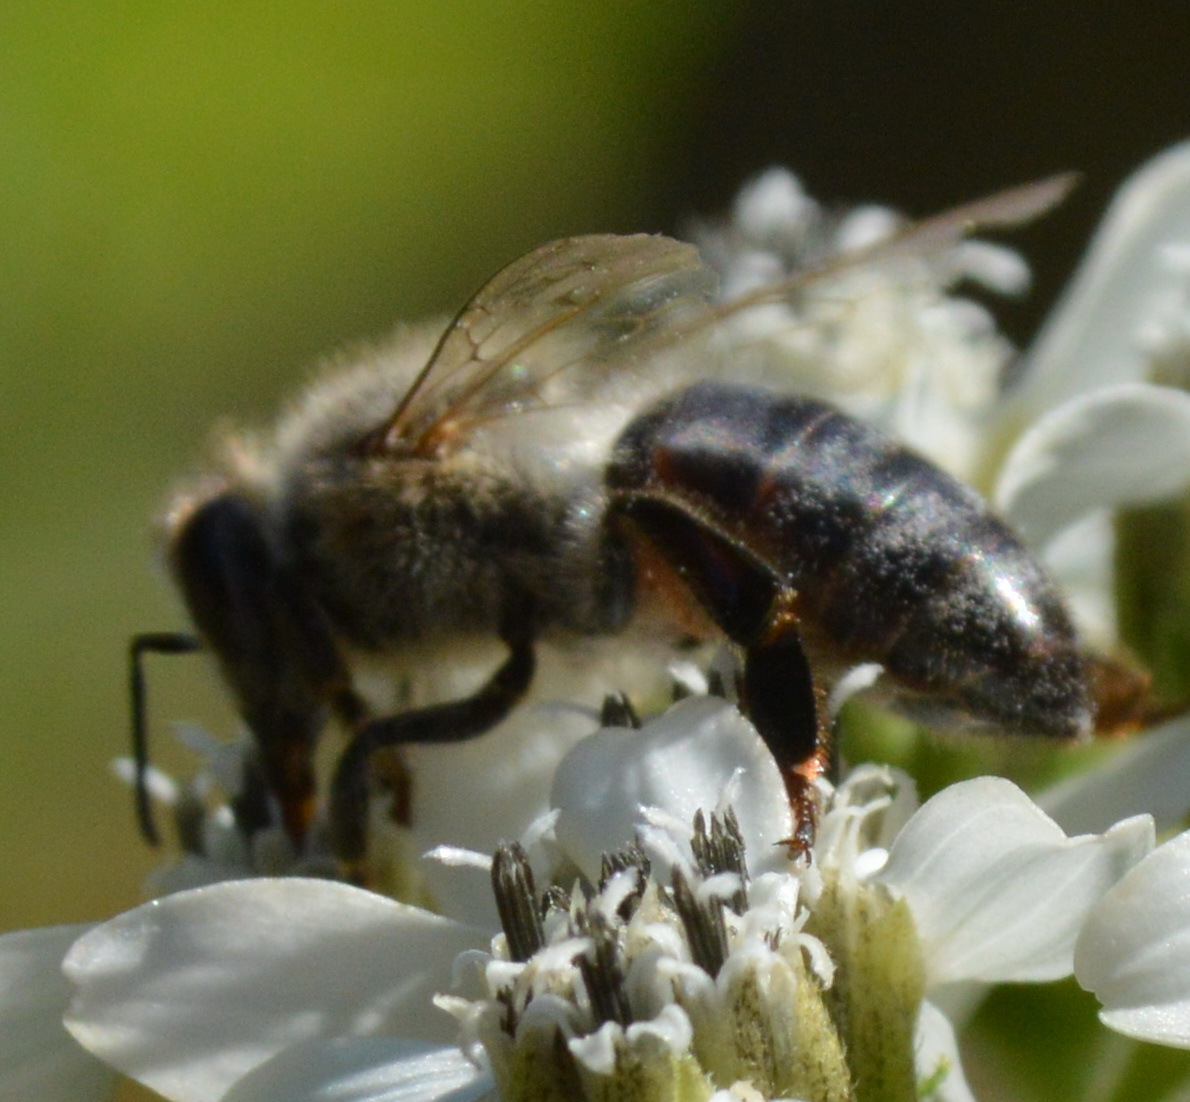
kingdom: Animalia
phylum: Arthropoda
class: Insecta
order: Hymenoptera
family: Apidae
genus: Xylocopa
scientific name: Xylocopa virginica
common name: Carpenter bee
